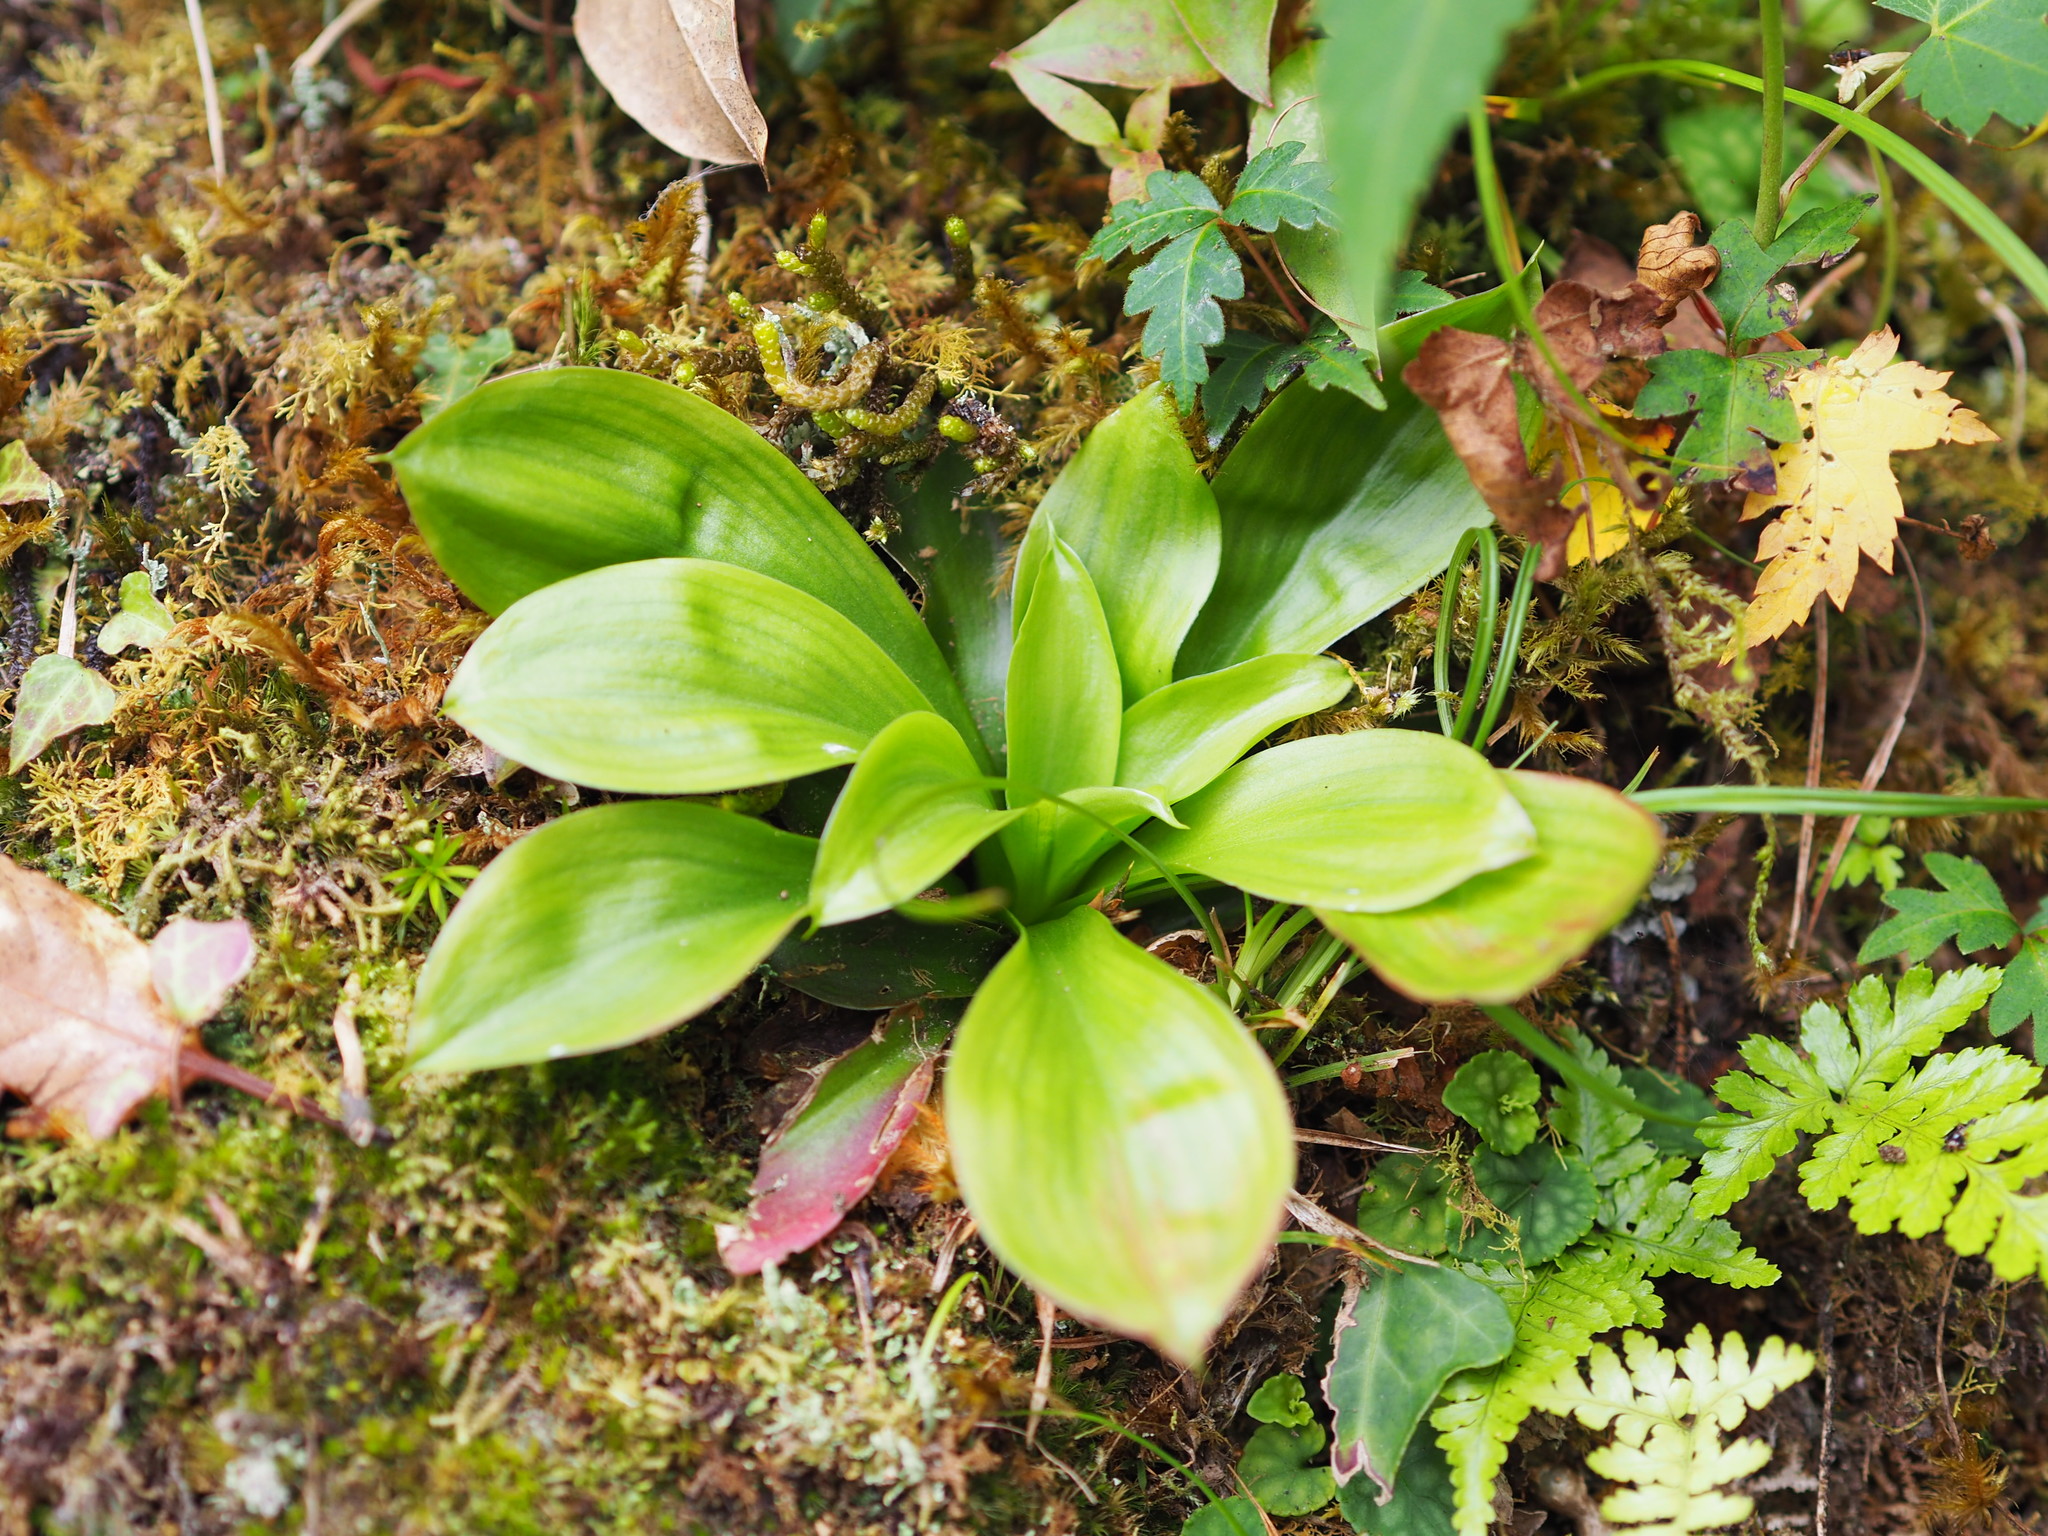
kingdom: Plantae
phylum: Tracheophyta
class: Liliopsida
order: Liliales
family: Melanthiaceae
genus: Helonias
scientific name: Helonias umbellata
